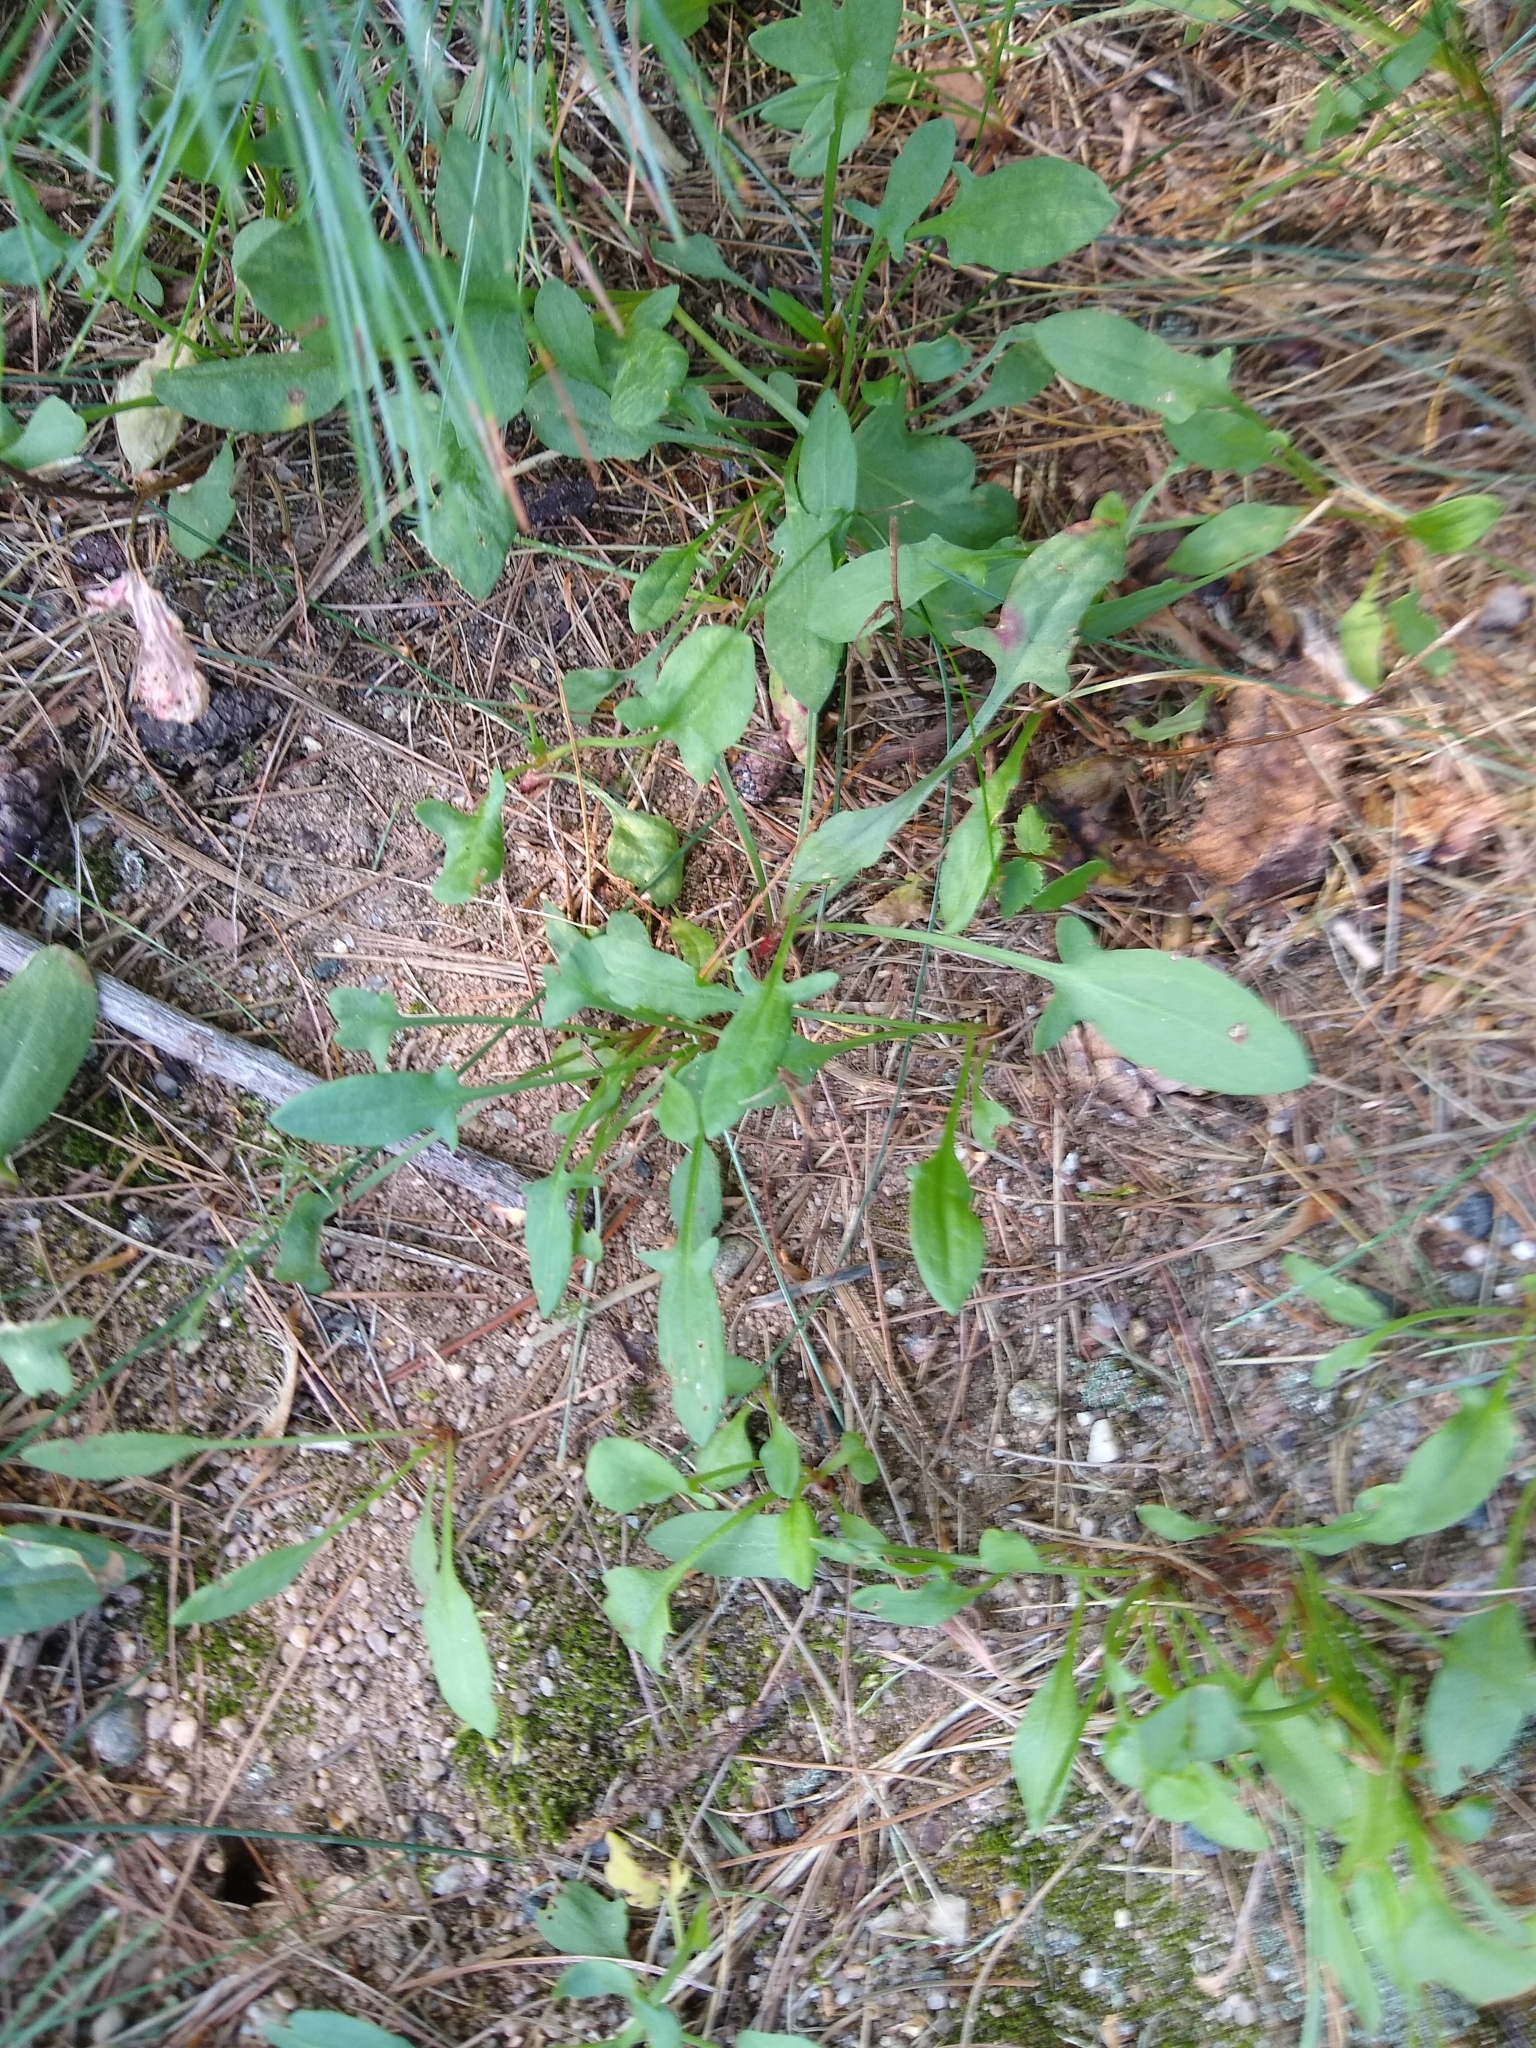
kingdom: Plantae
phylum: Tracheophyta
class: Magnoliopsida
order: Caryophyllales
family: Polygonaceae
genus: Rumex
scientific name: Rumex acetosella
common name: Common sheep sorrel
